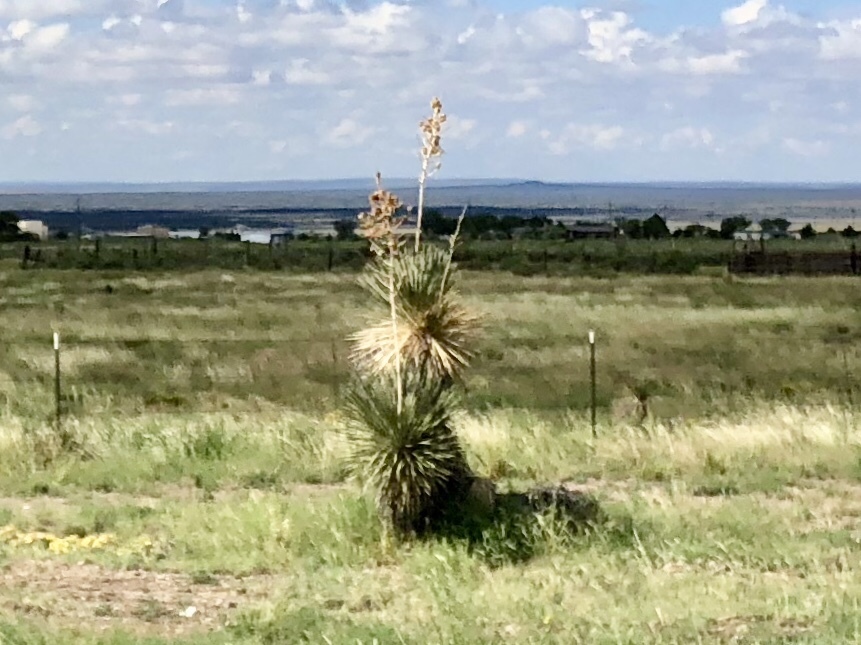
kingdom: Plantae
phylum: Tracheophyta
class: Liliopsida
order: Asparagales
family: Asparagaceae
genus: Yucca
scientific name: Yucca elata
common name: Palmella
